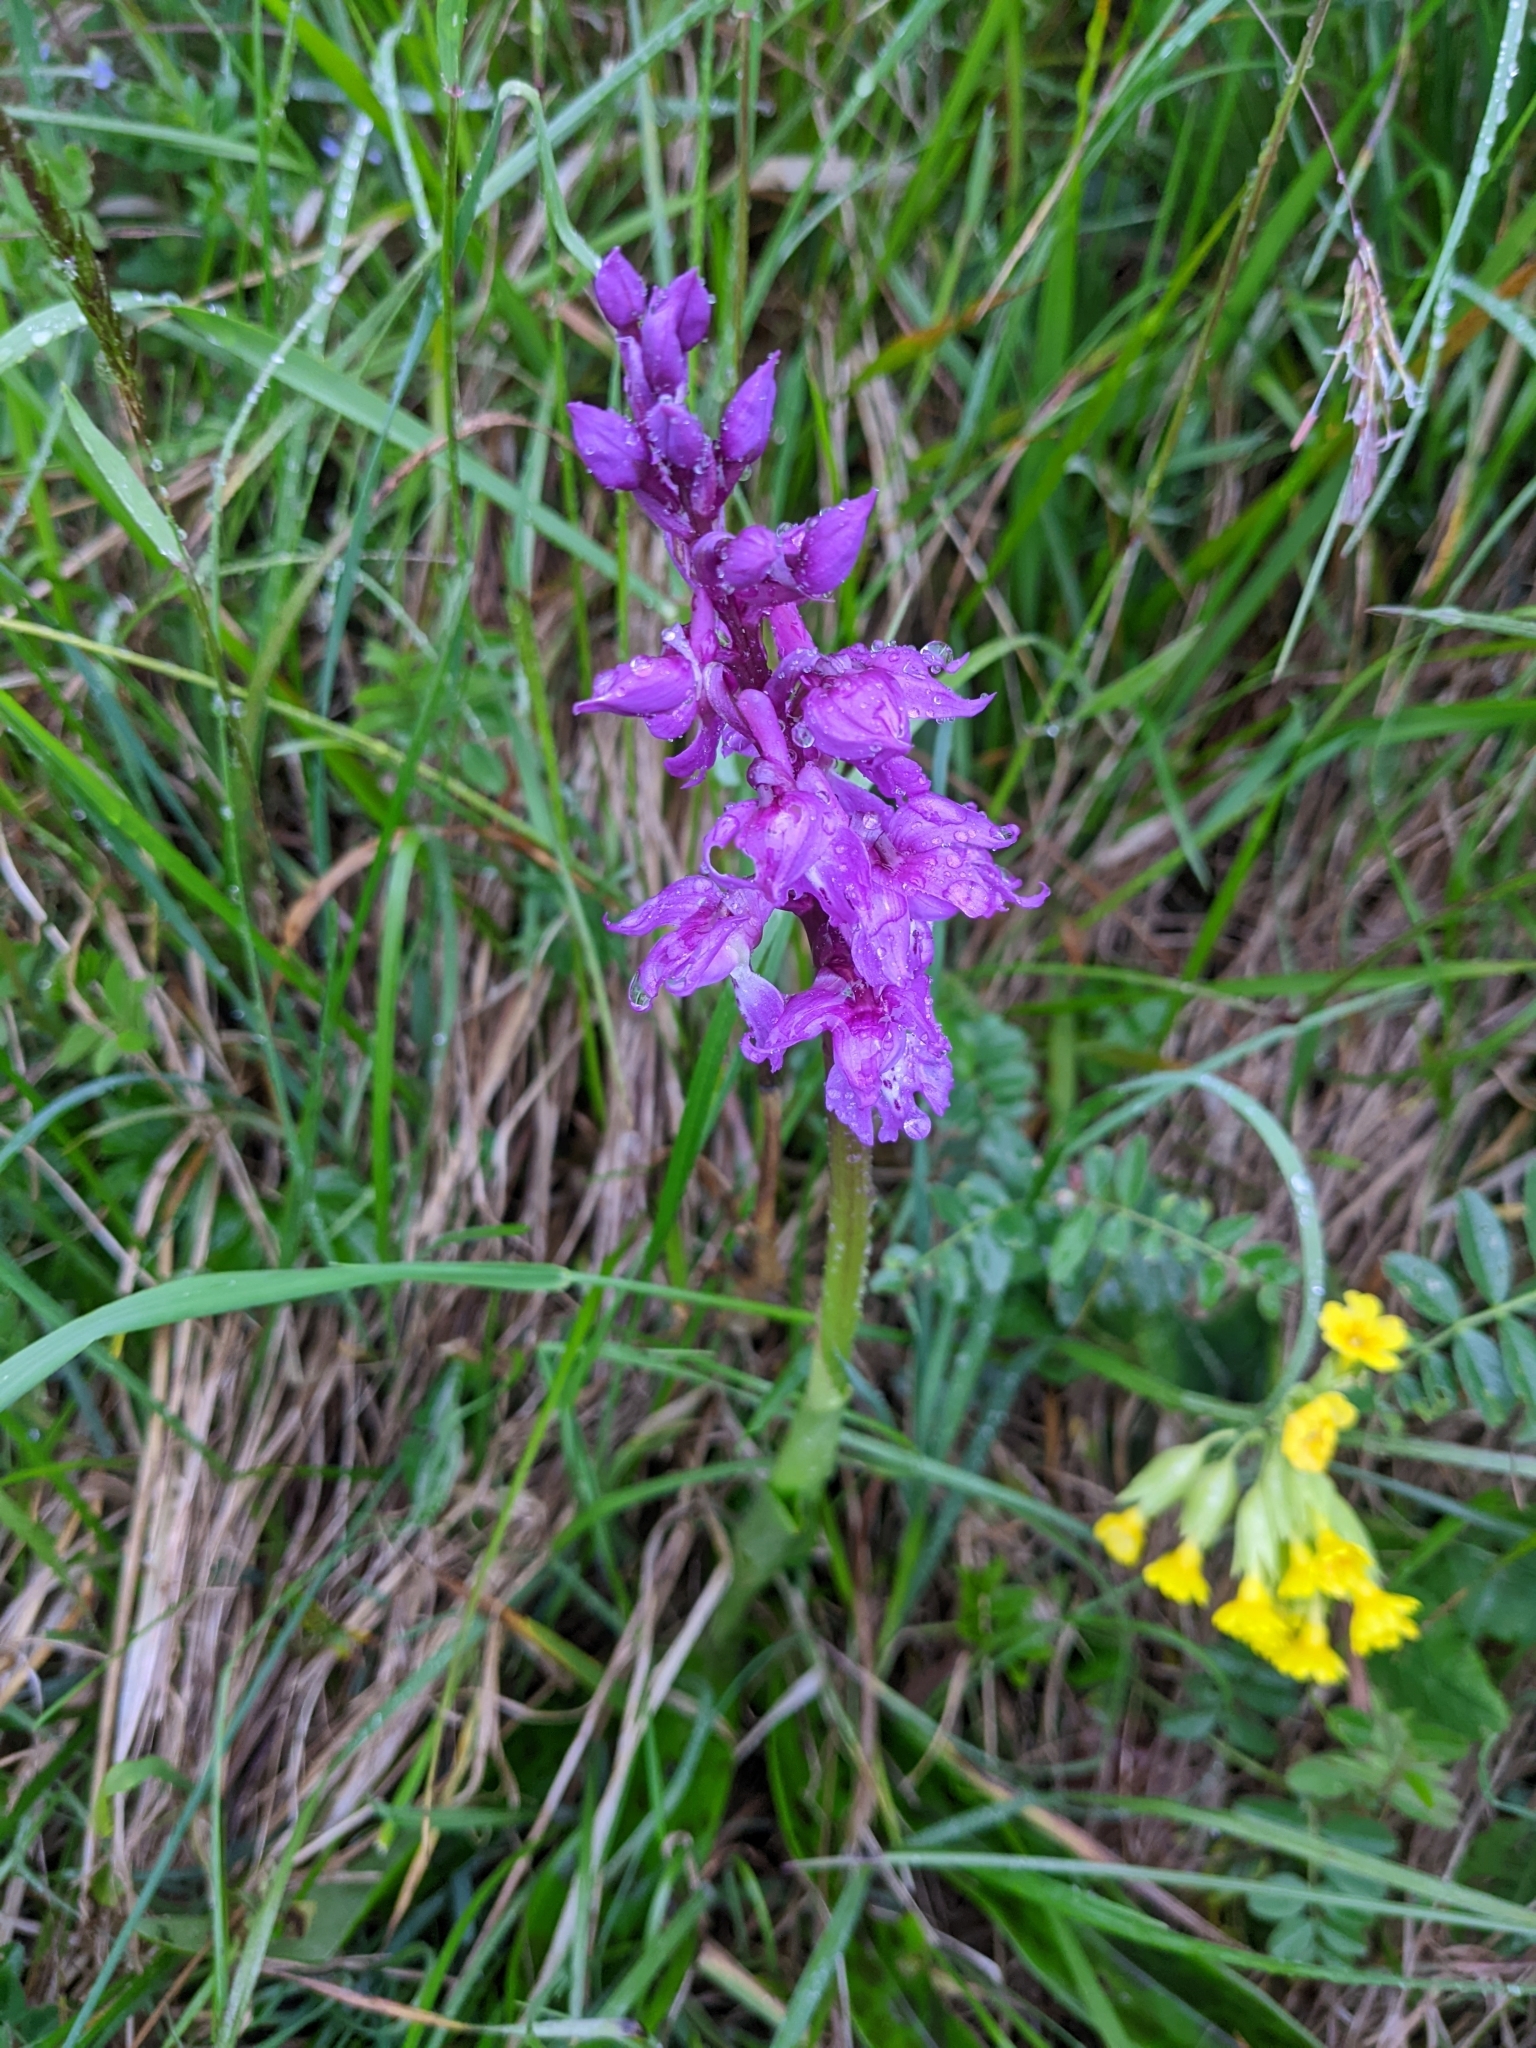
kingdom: Plantae
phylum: Tracheophyta
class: Liliopsida
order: Asparagales
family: Orchidaceae
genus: Orchis
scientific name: Orchis mascula
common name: Early-purple orchid
